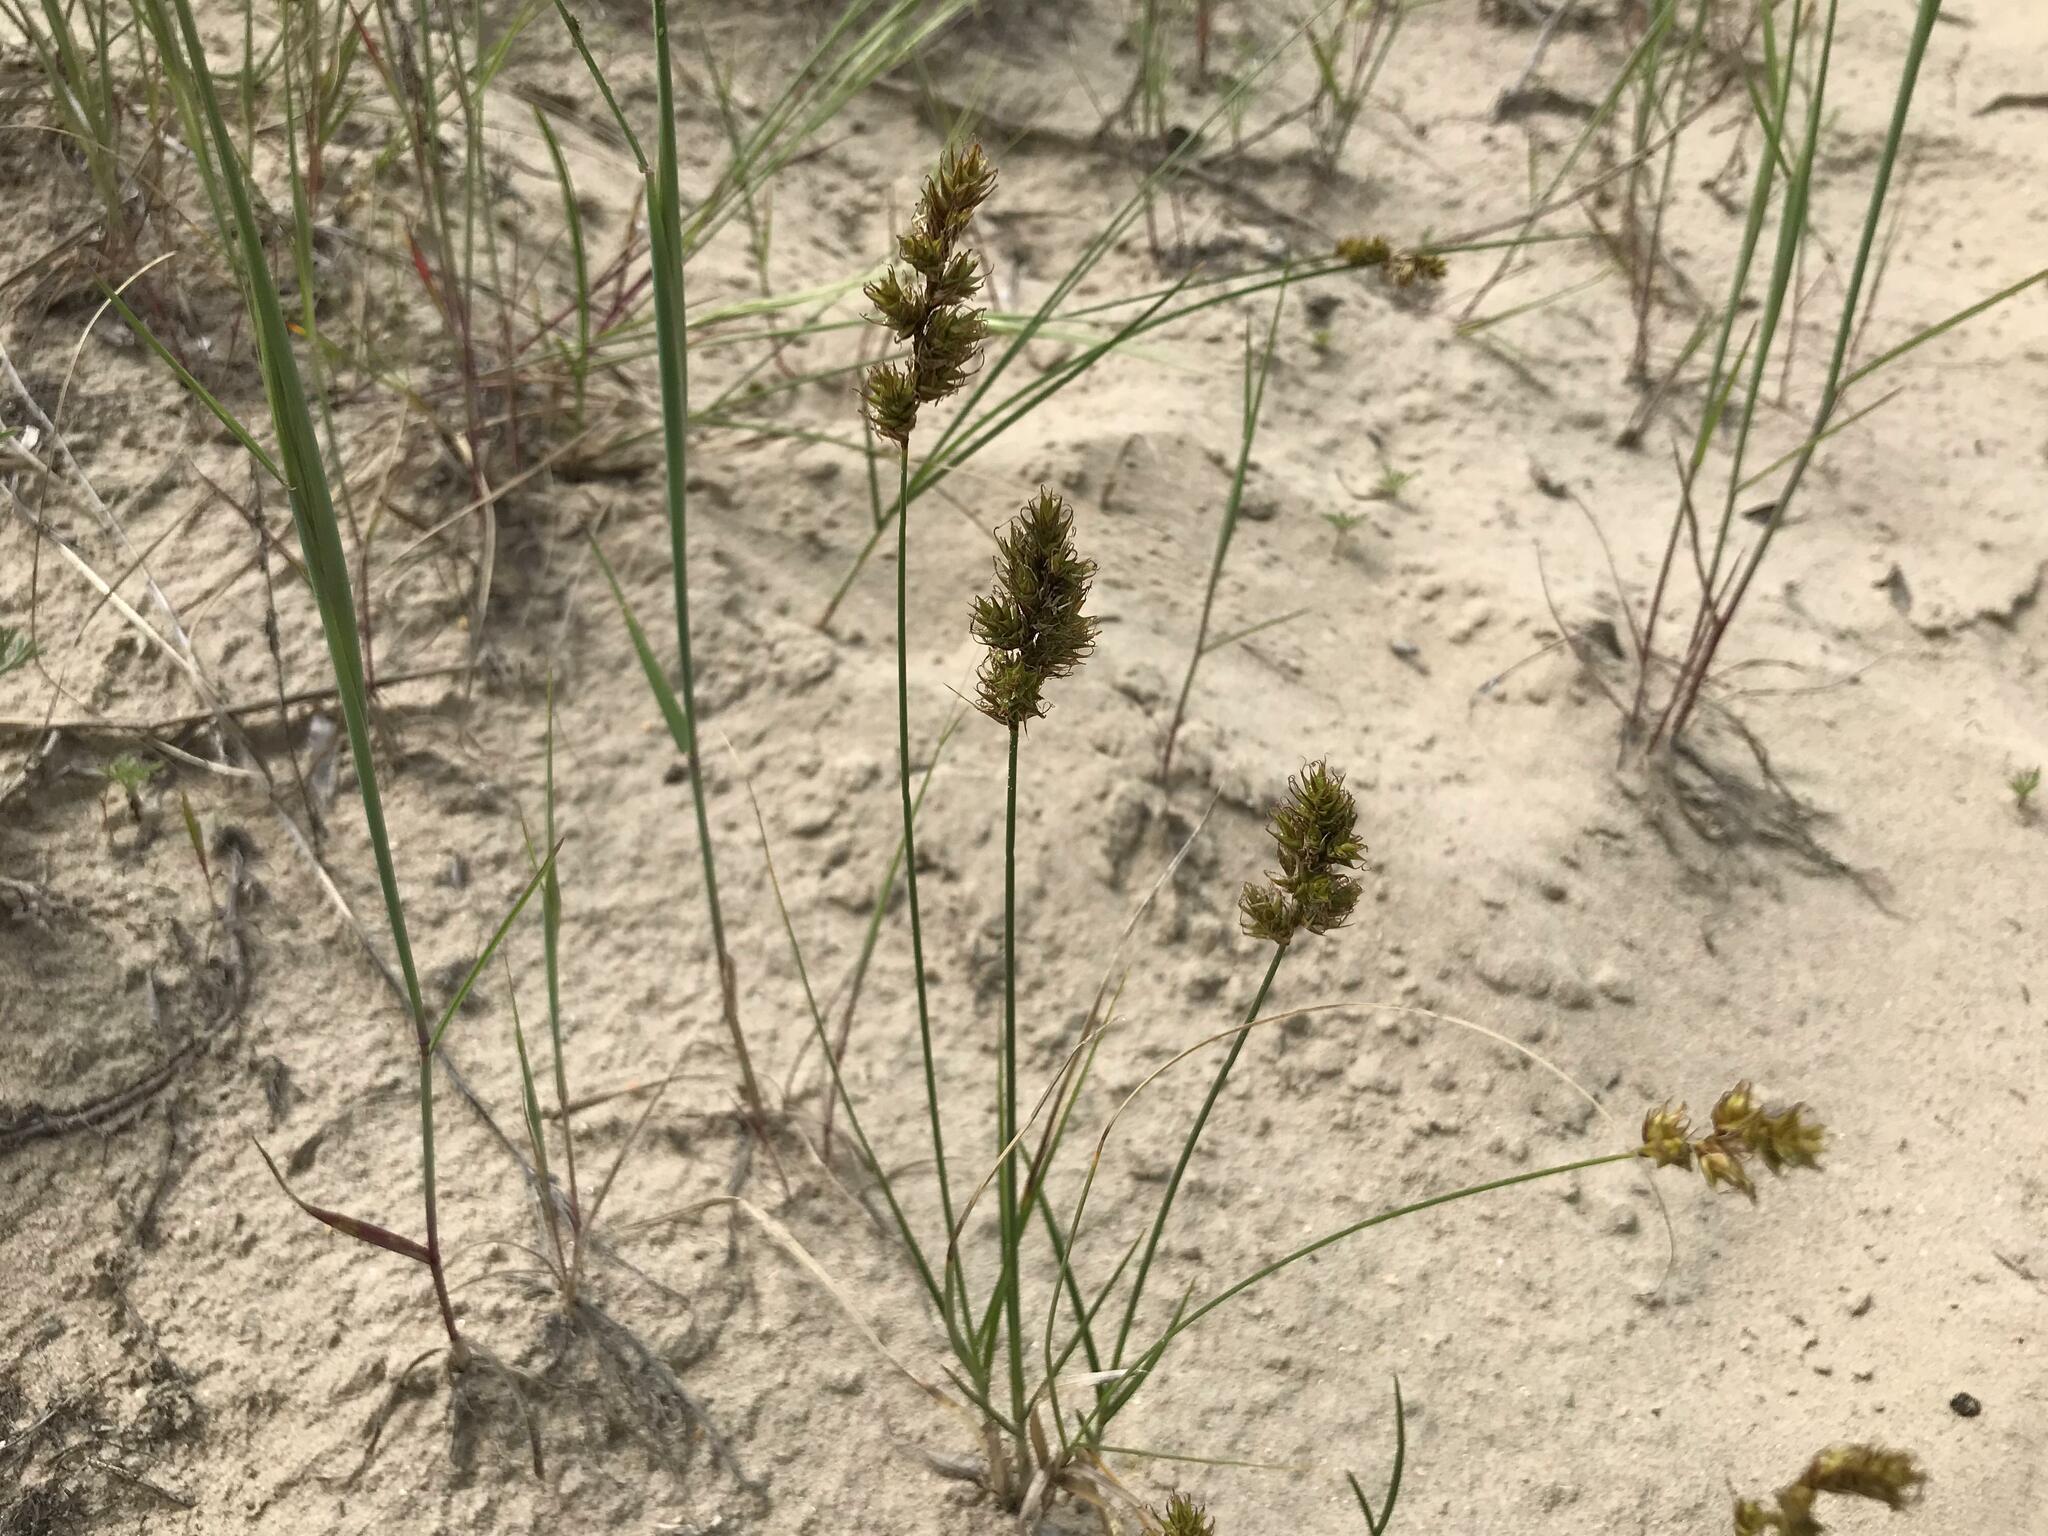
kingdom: Plantae
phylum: Tracheophyta
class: Liliopsida
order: Poales
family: Cyperaceae
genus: Carex
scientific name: Carex colchica
